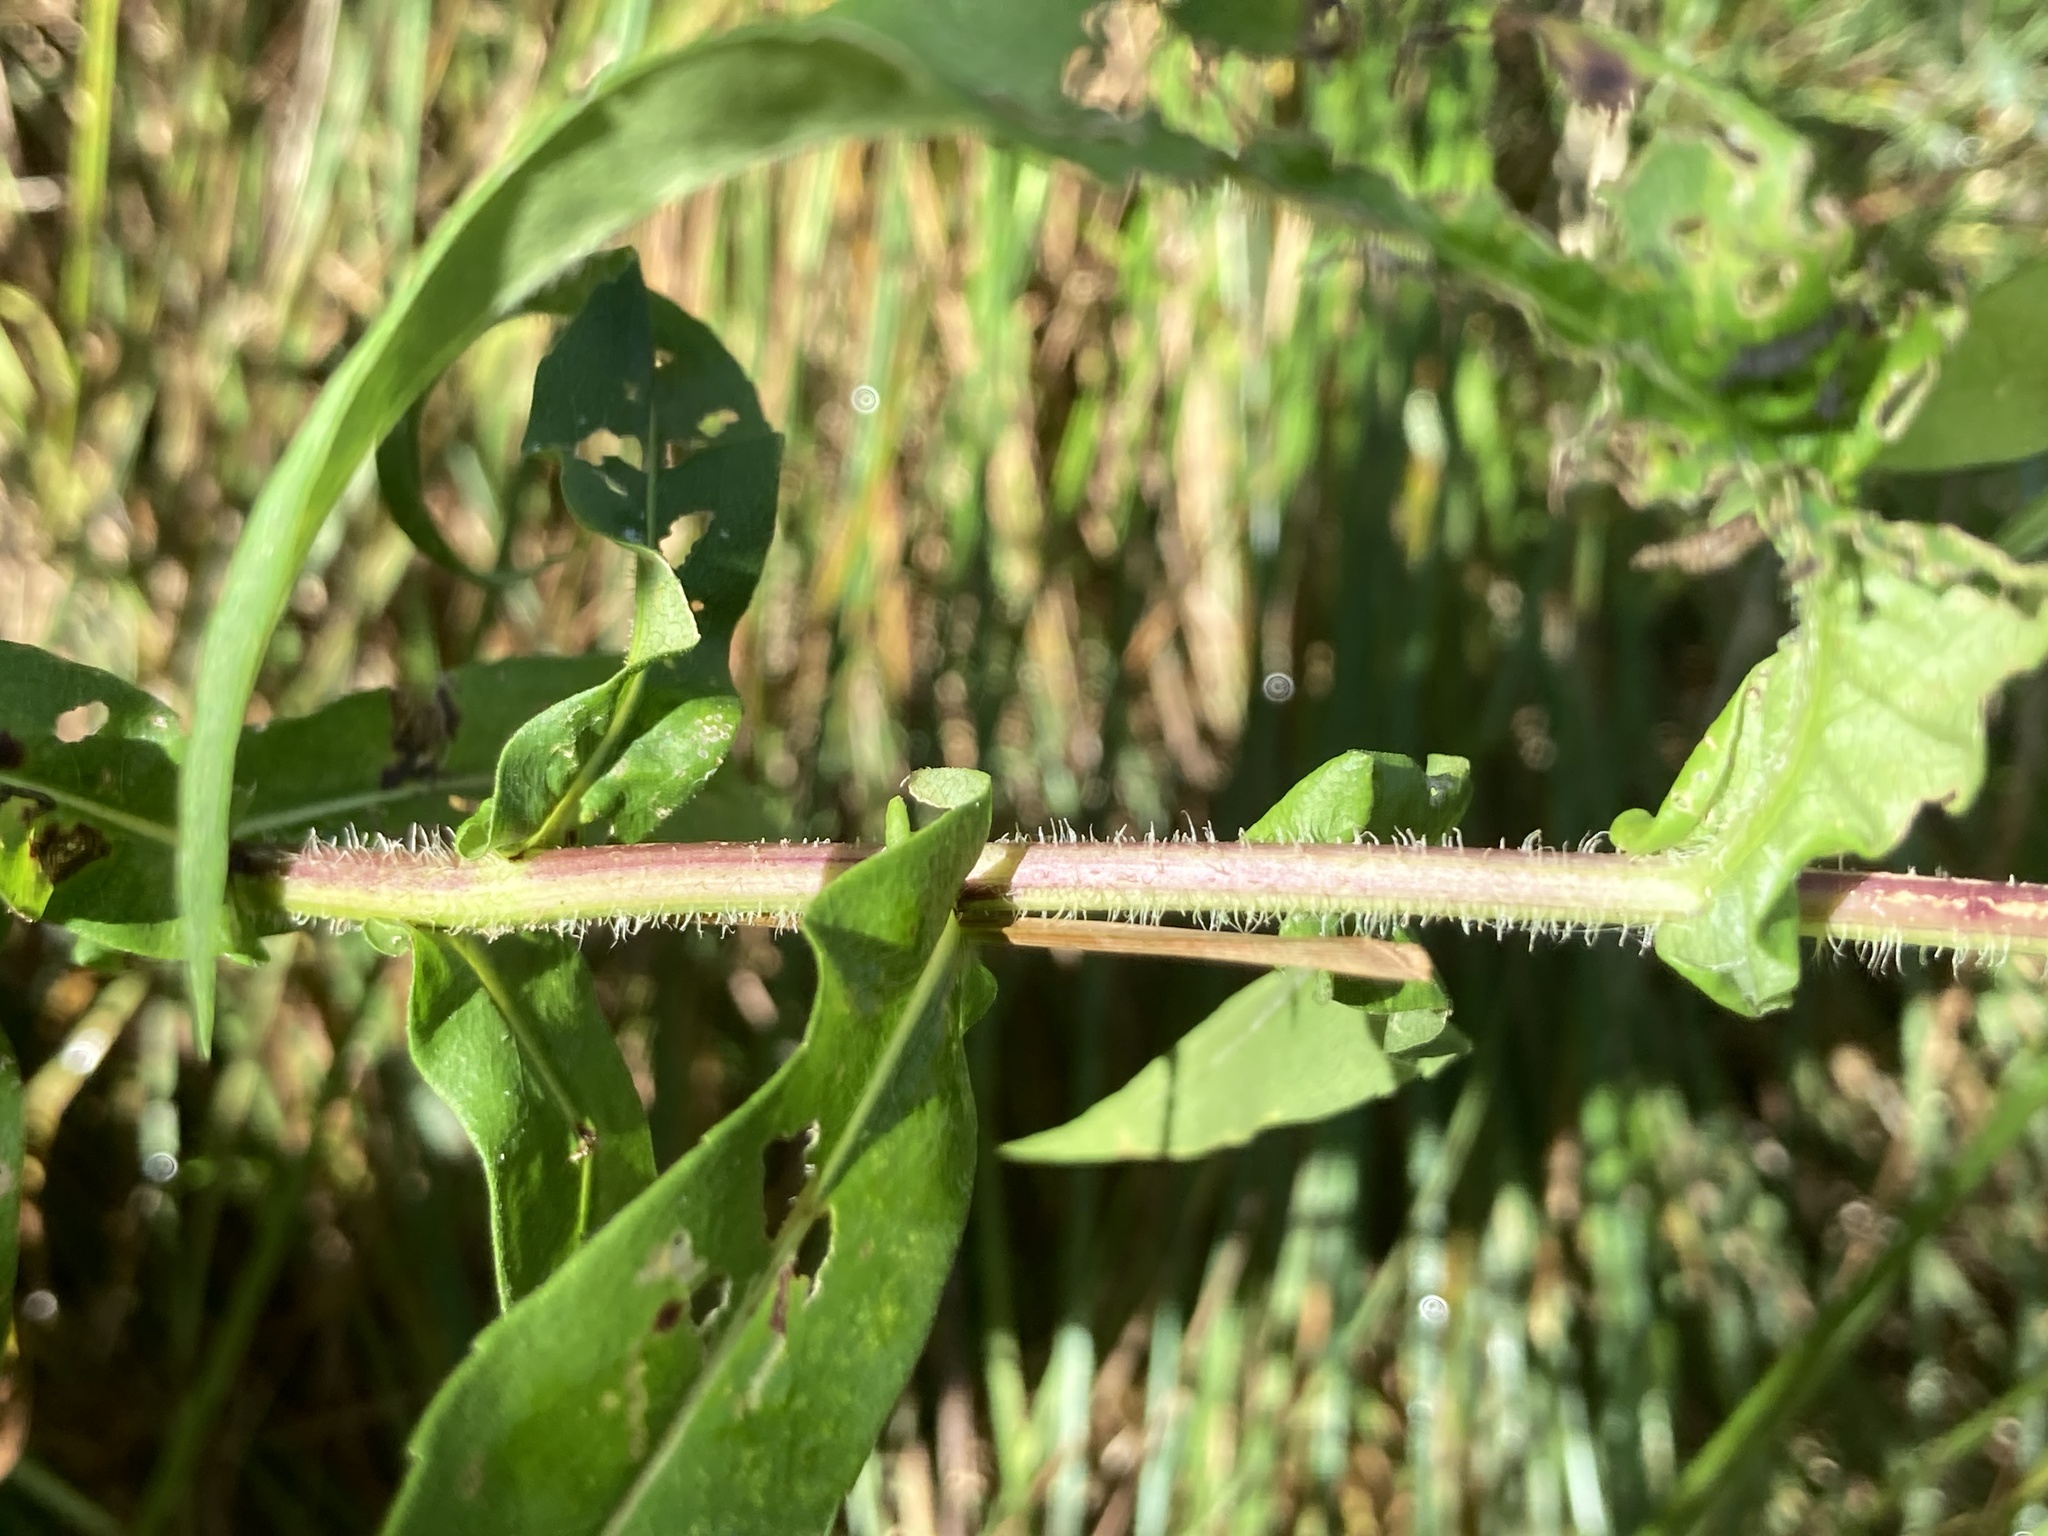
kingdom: Plantae
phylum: Tracheophyta
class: Magnoliopsida
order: Asterales
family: Asteraceae
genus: Symphyotrichum
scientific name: Symphyotrichum puniceum
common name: Bog aster
